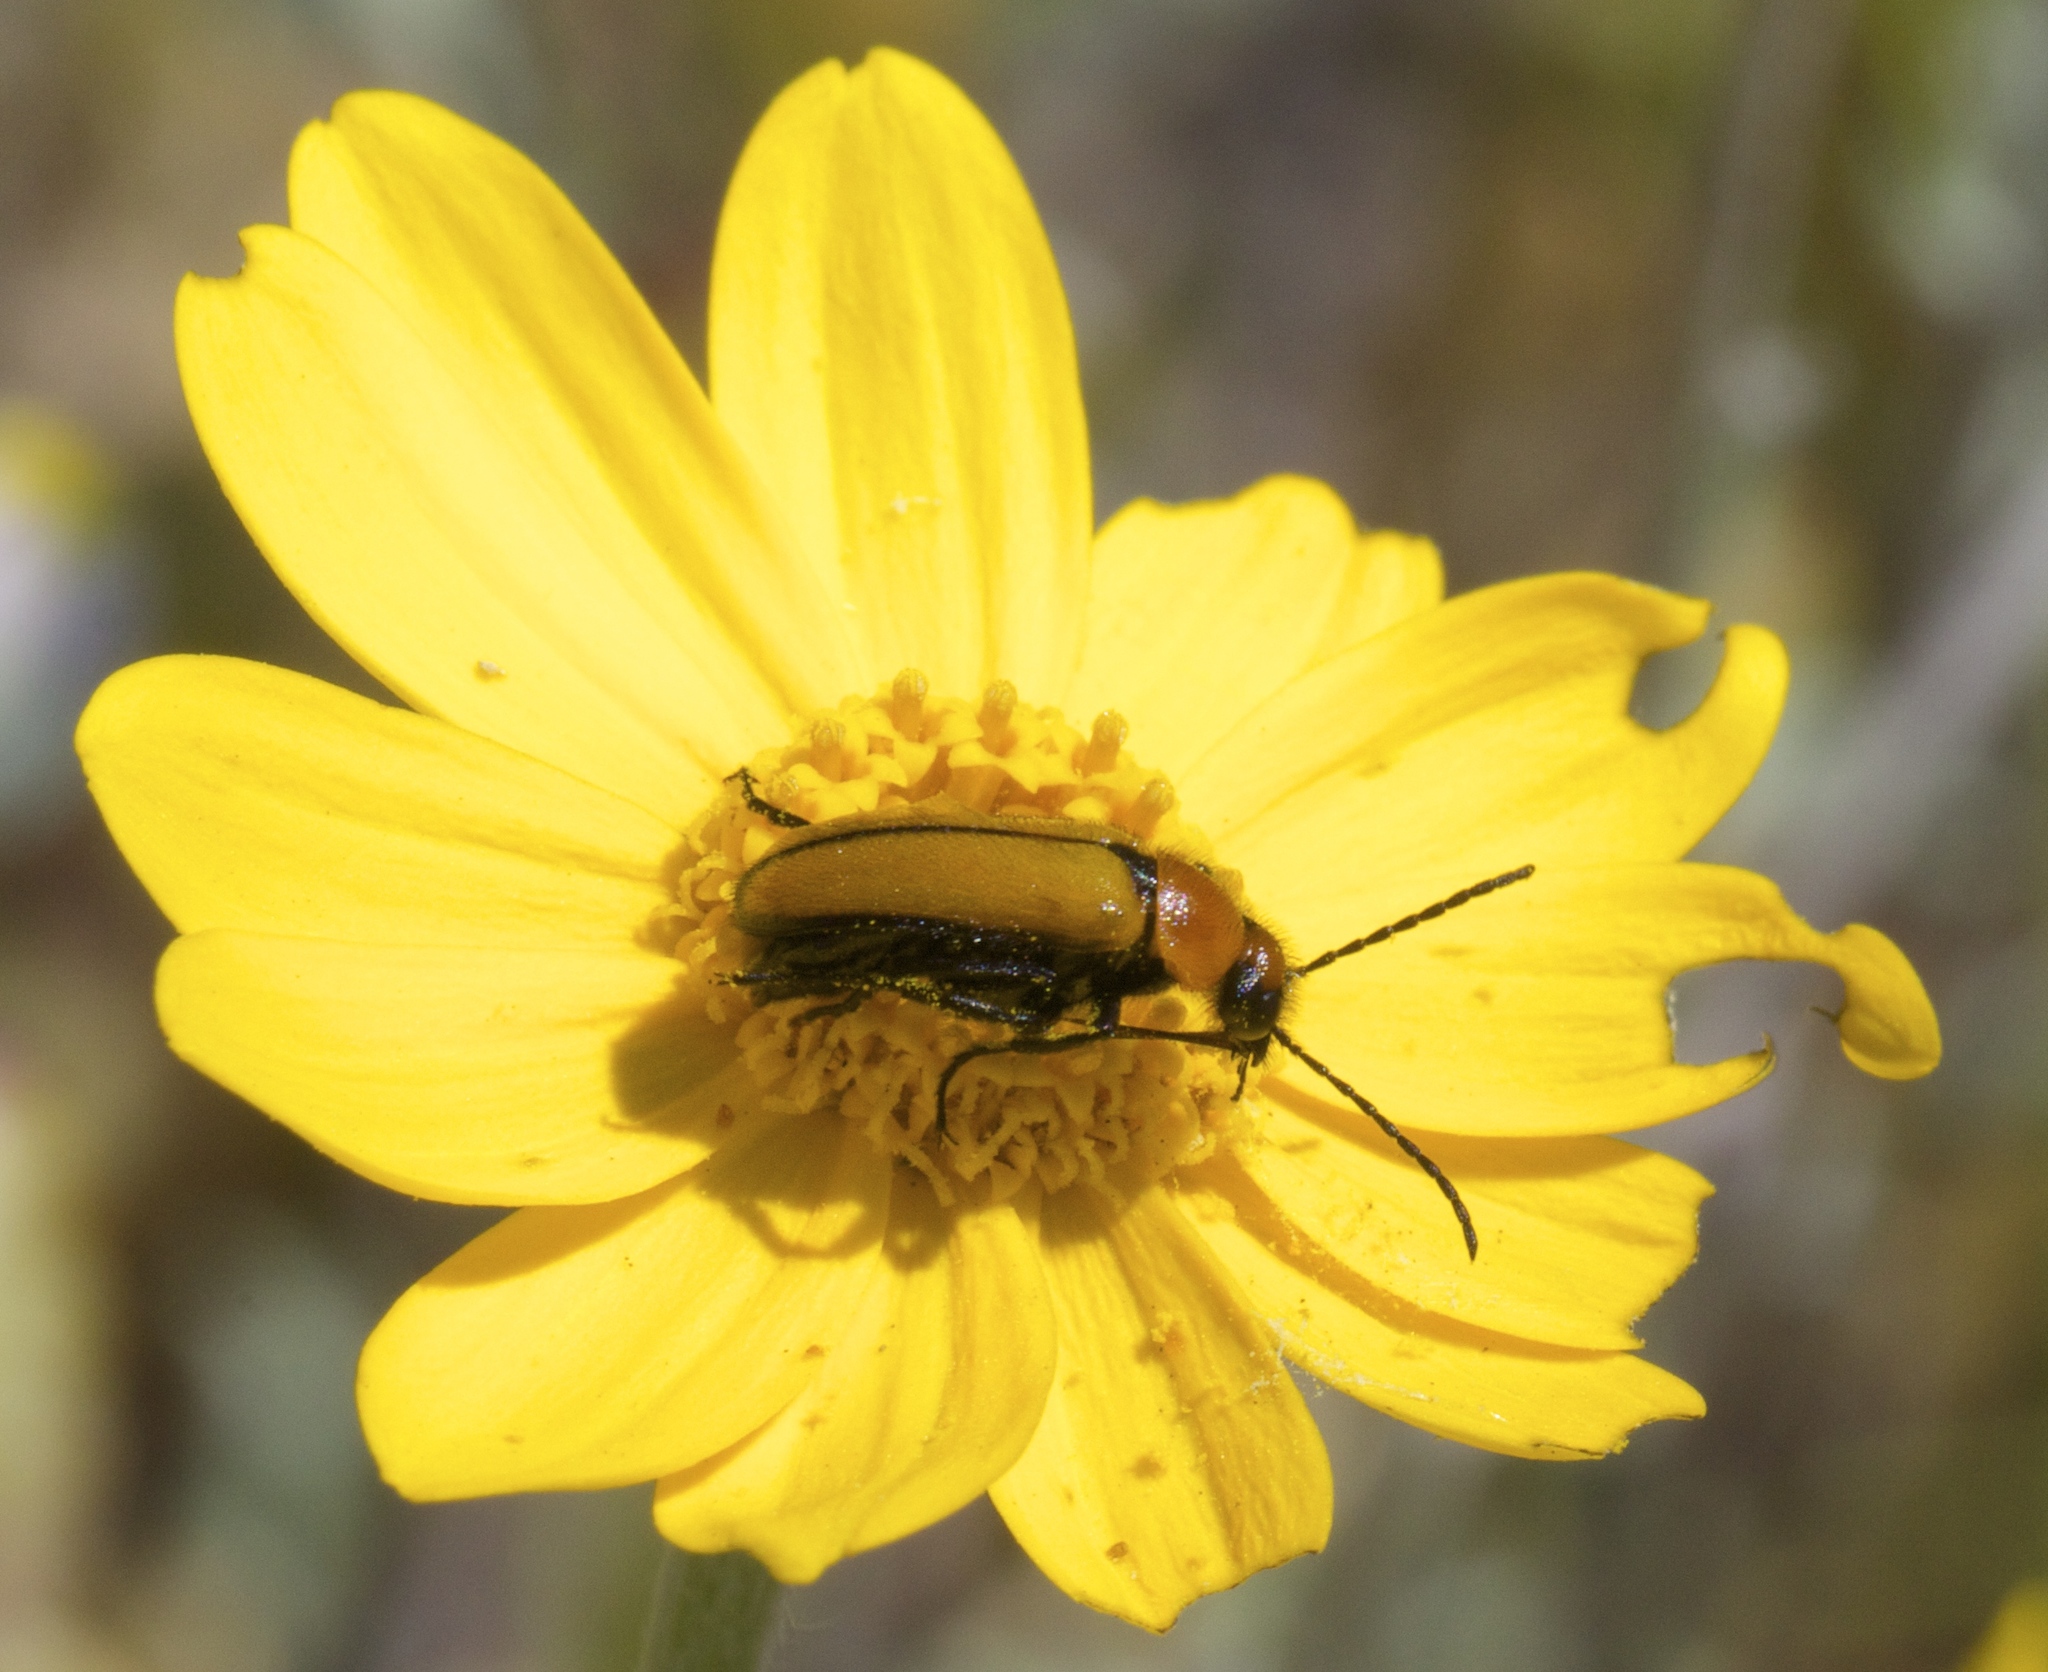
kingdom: Animalia
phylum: Arthropoda
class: Insecta
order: Coleoptera
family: Meloidae
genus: Nemognatha
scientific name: Nemognatha scutellaris
